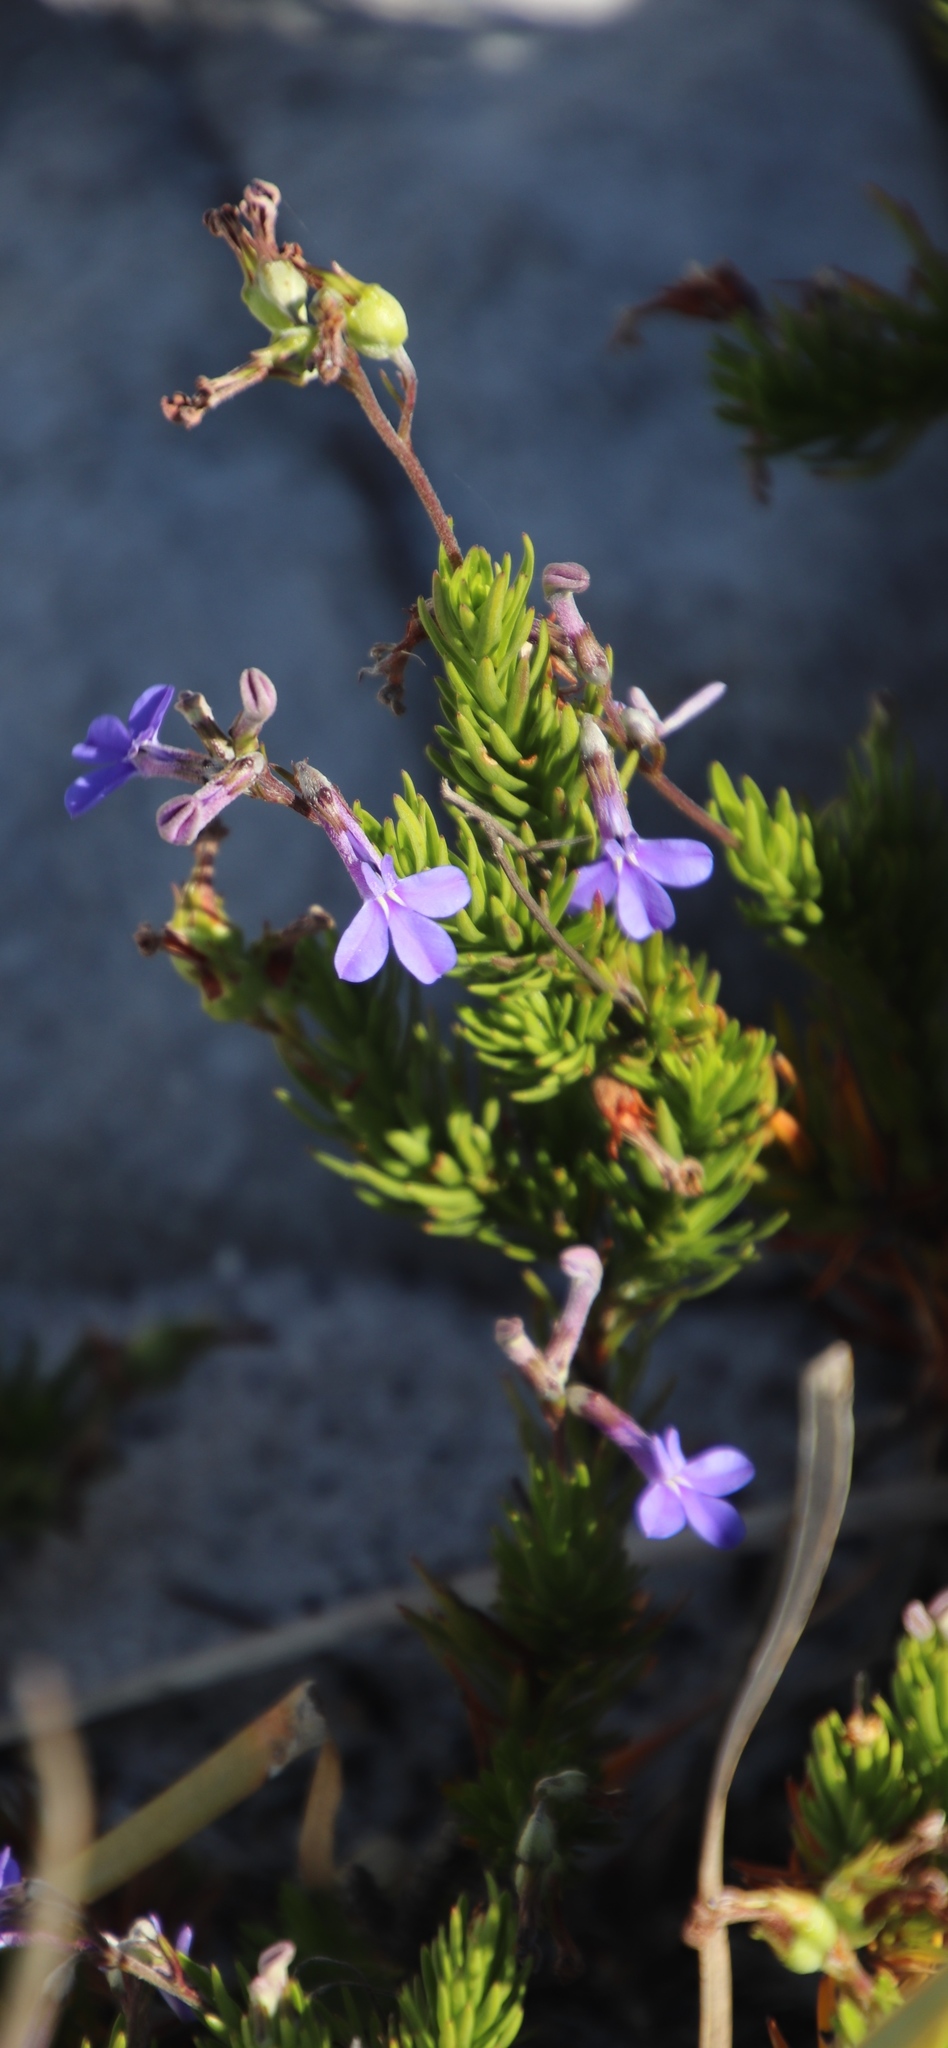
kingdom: Plantae
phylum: Tracheophyta
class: Magnoliopsida
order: Asterales
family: Campanulaceae
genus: Lobelia
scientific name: Lobelia pinifolia
